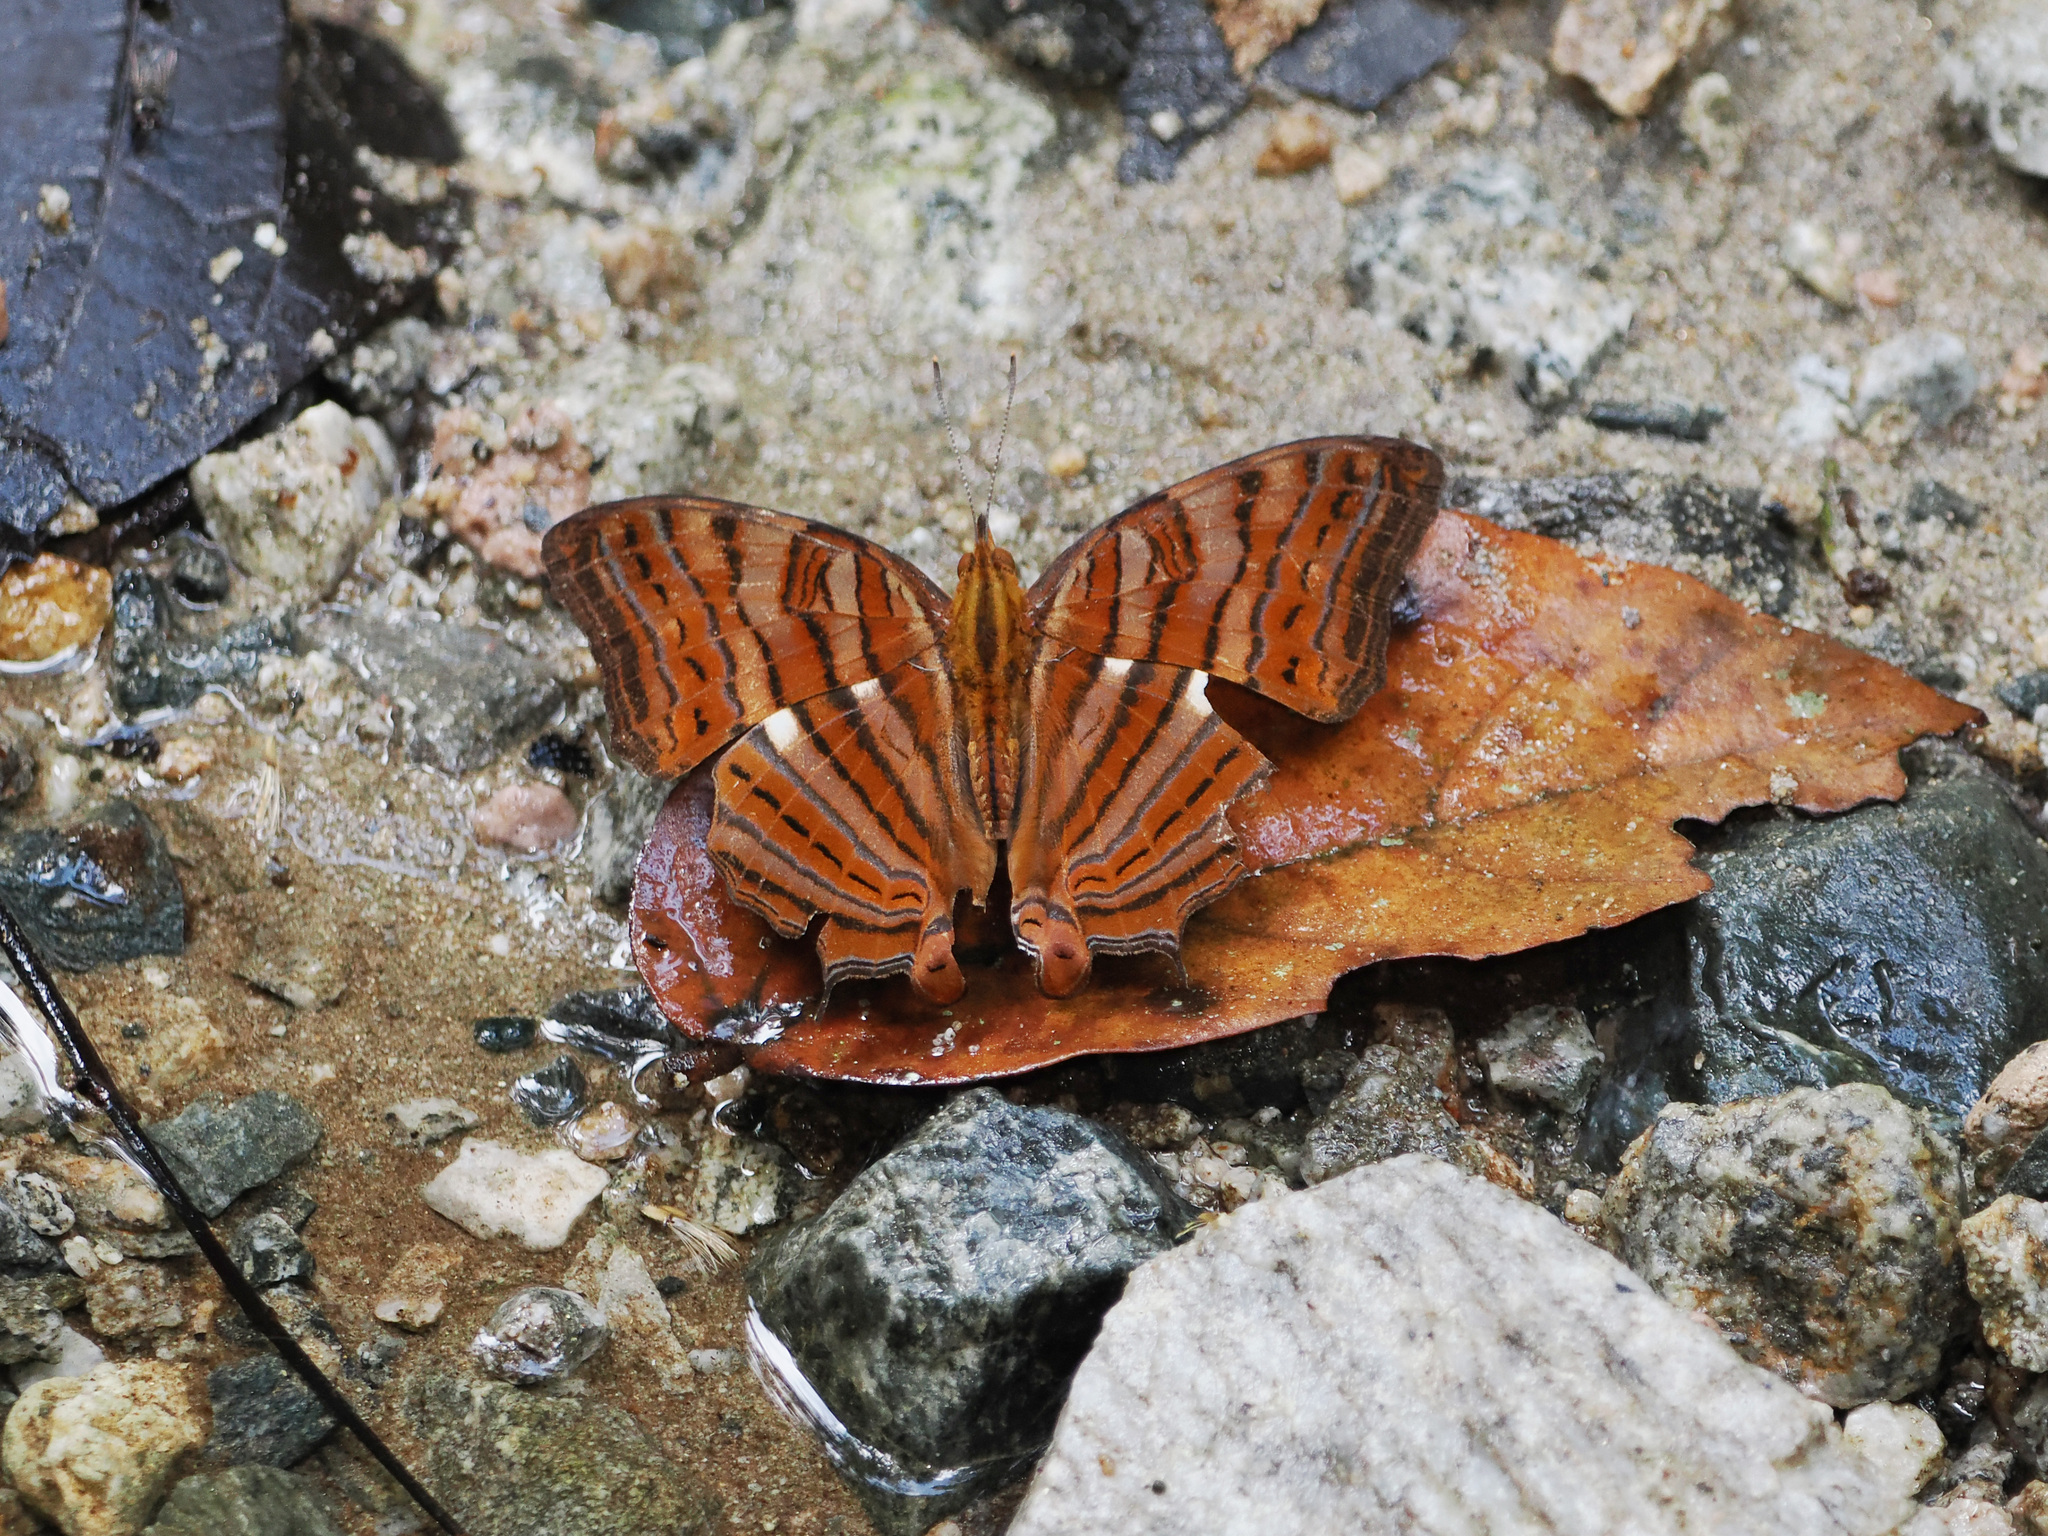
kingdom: Animalia
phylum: Arthropoda
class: Insecta
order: Lepidoptera
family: Nymphalidae
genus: Cyrestis
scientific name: Cyrestis thyonneus
